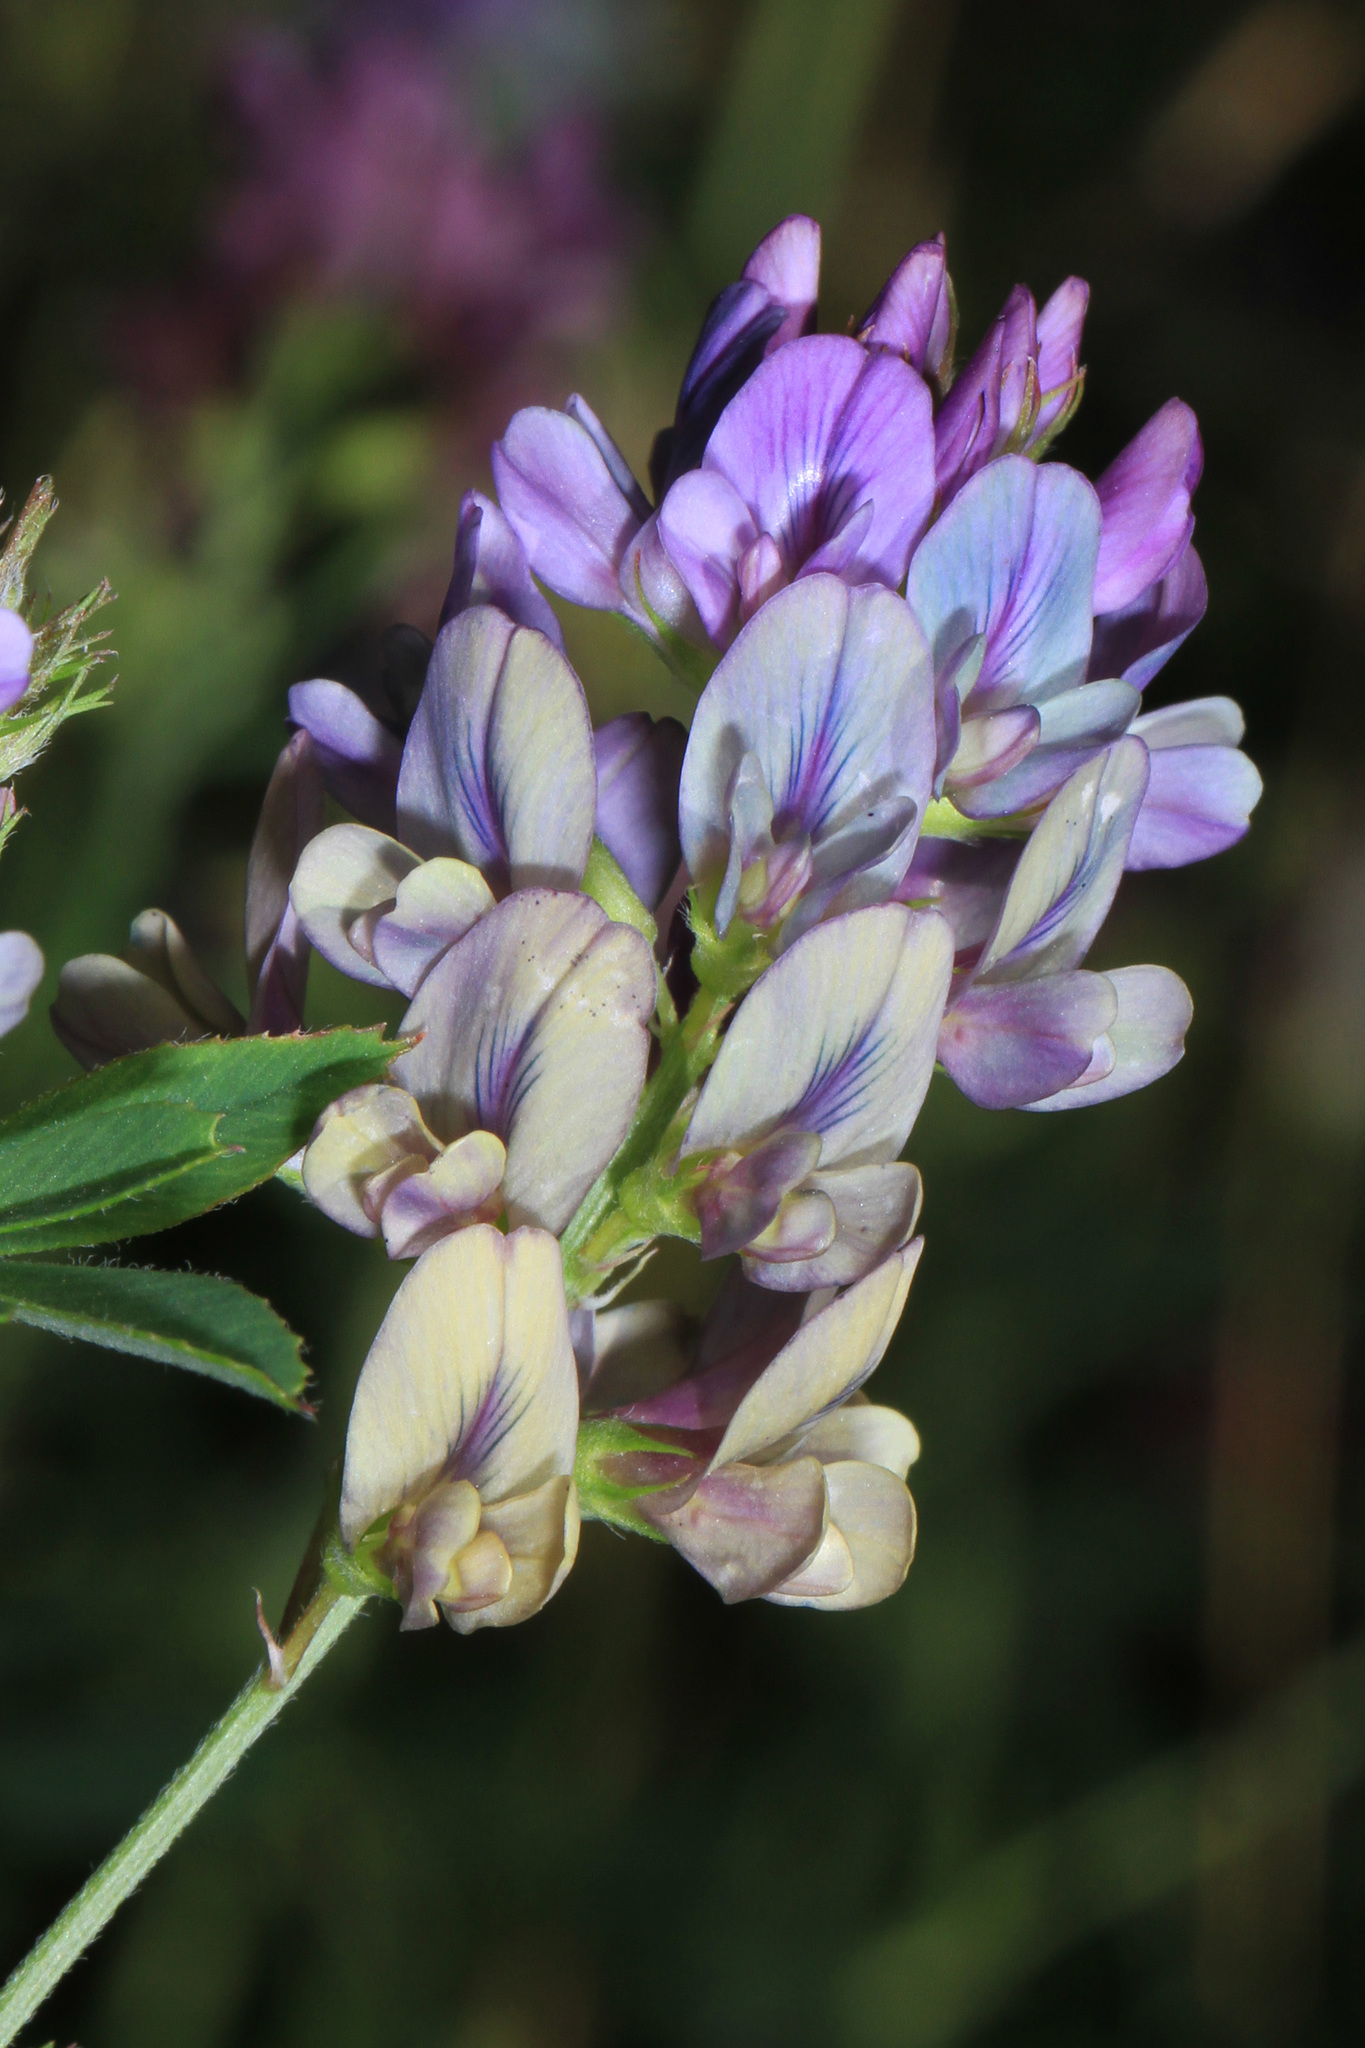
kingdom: Plantae
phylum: Tracheophyta
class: Magnoliopsida
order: Fabales
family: Fabaceae
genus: Medicago
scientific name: Medicago sativa
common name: Alfalfa
